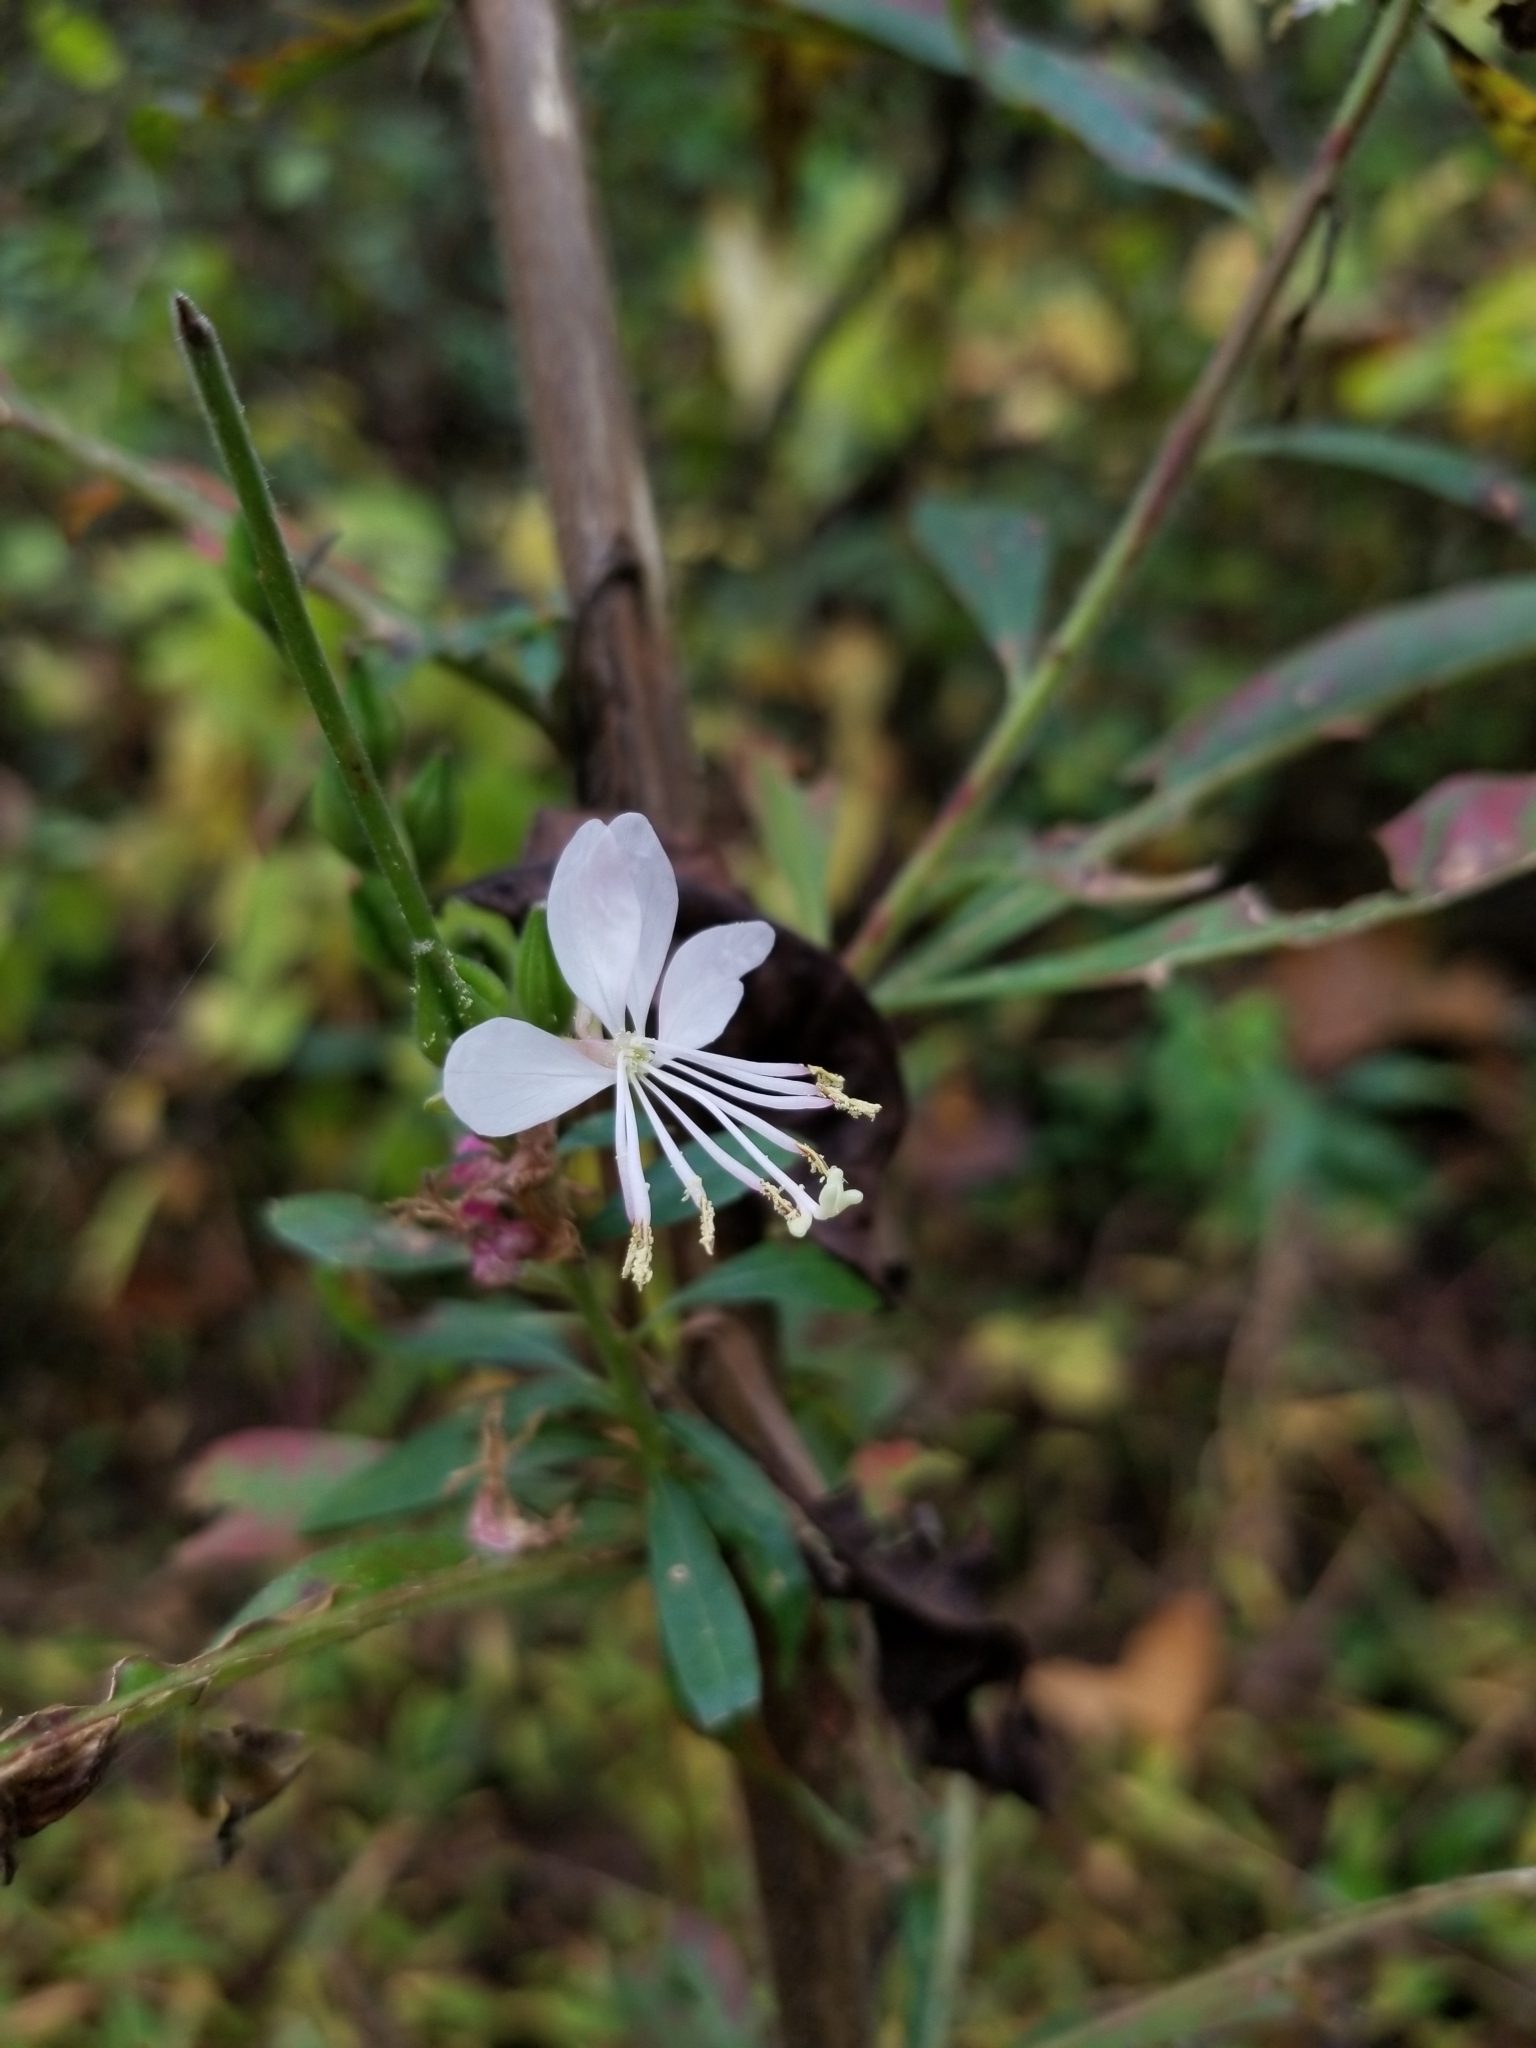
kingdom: Plantae
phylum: Tracheophyta
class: Magnoliopsida
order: Myrtales
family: Onagraceae
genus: Oenothera
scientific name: Oenothera gaura
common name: Biennial beeblossom
